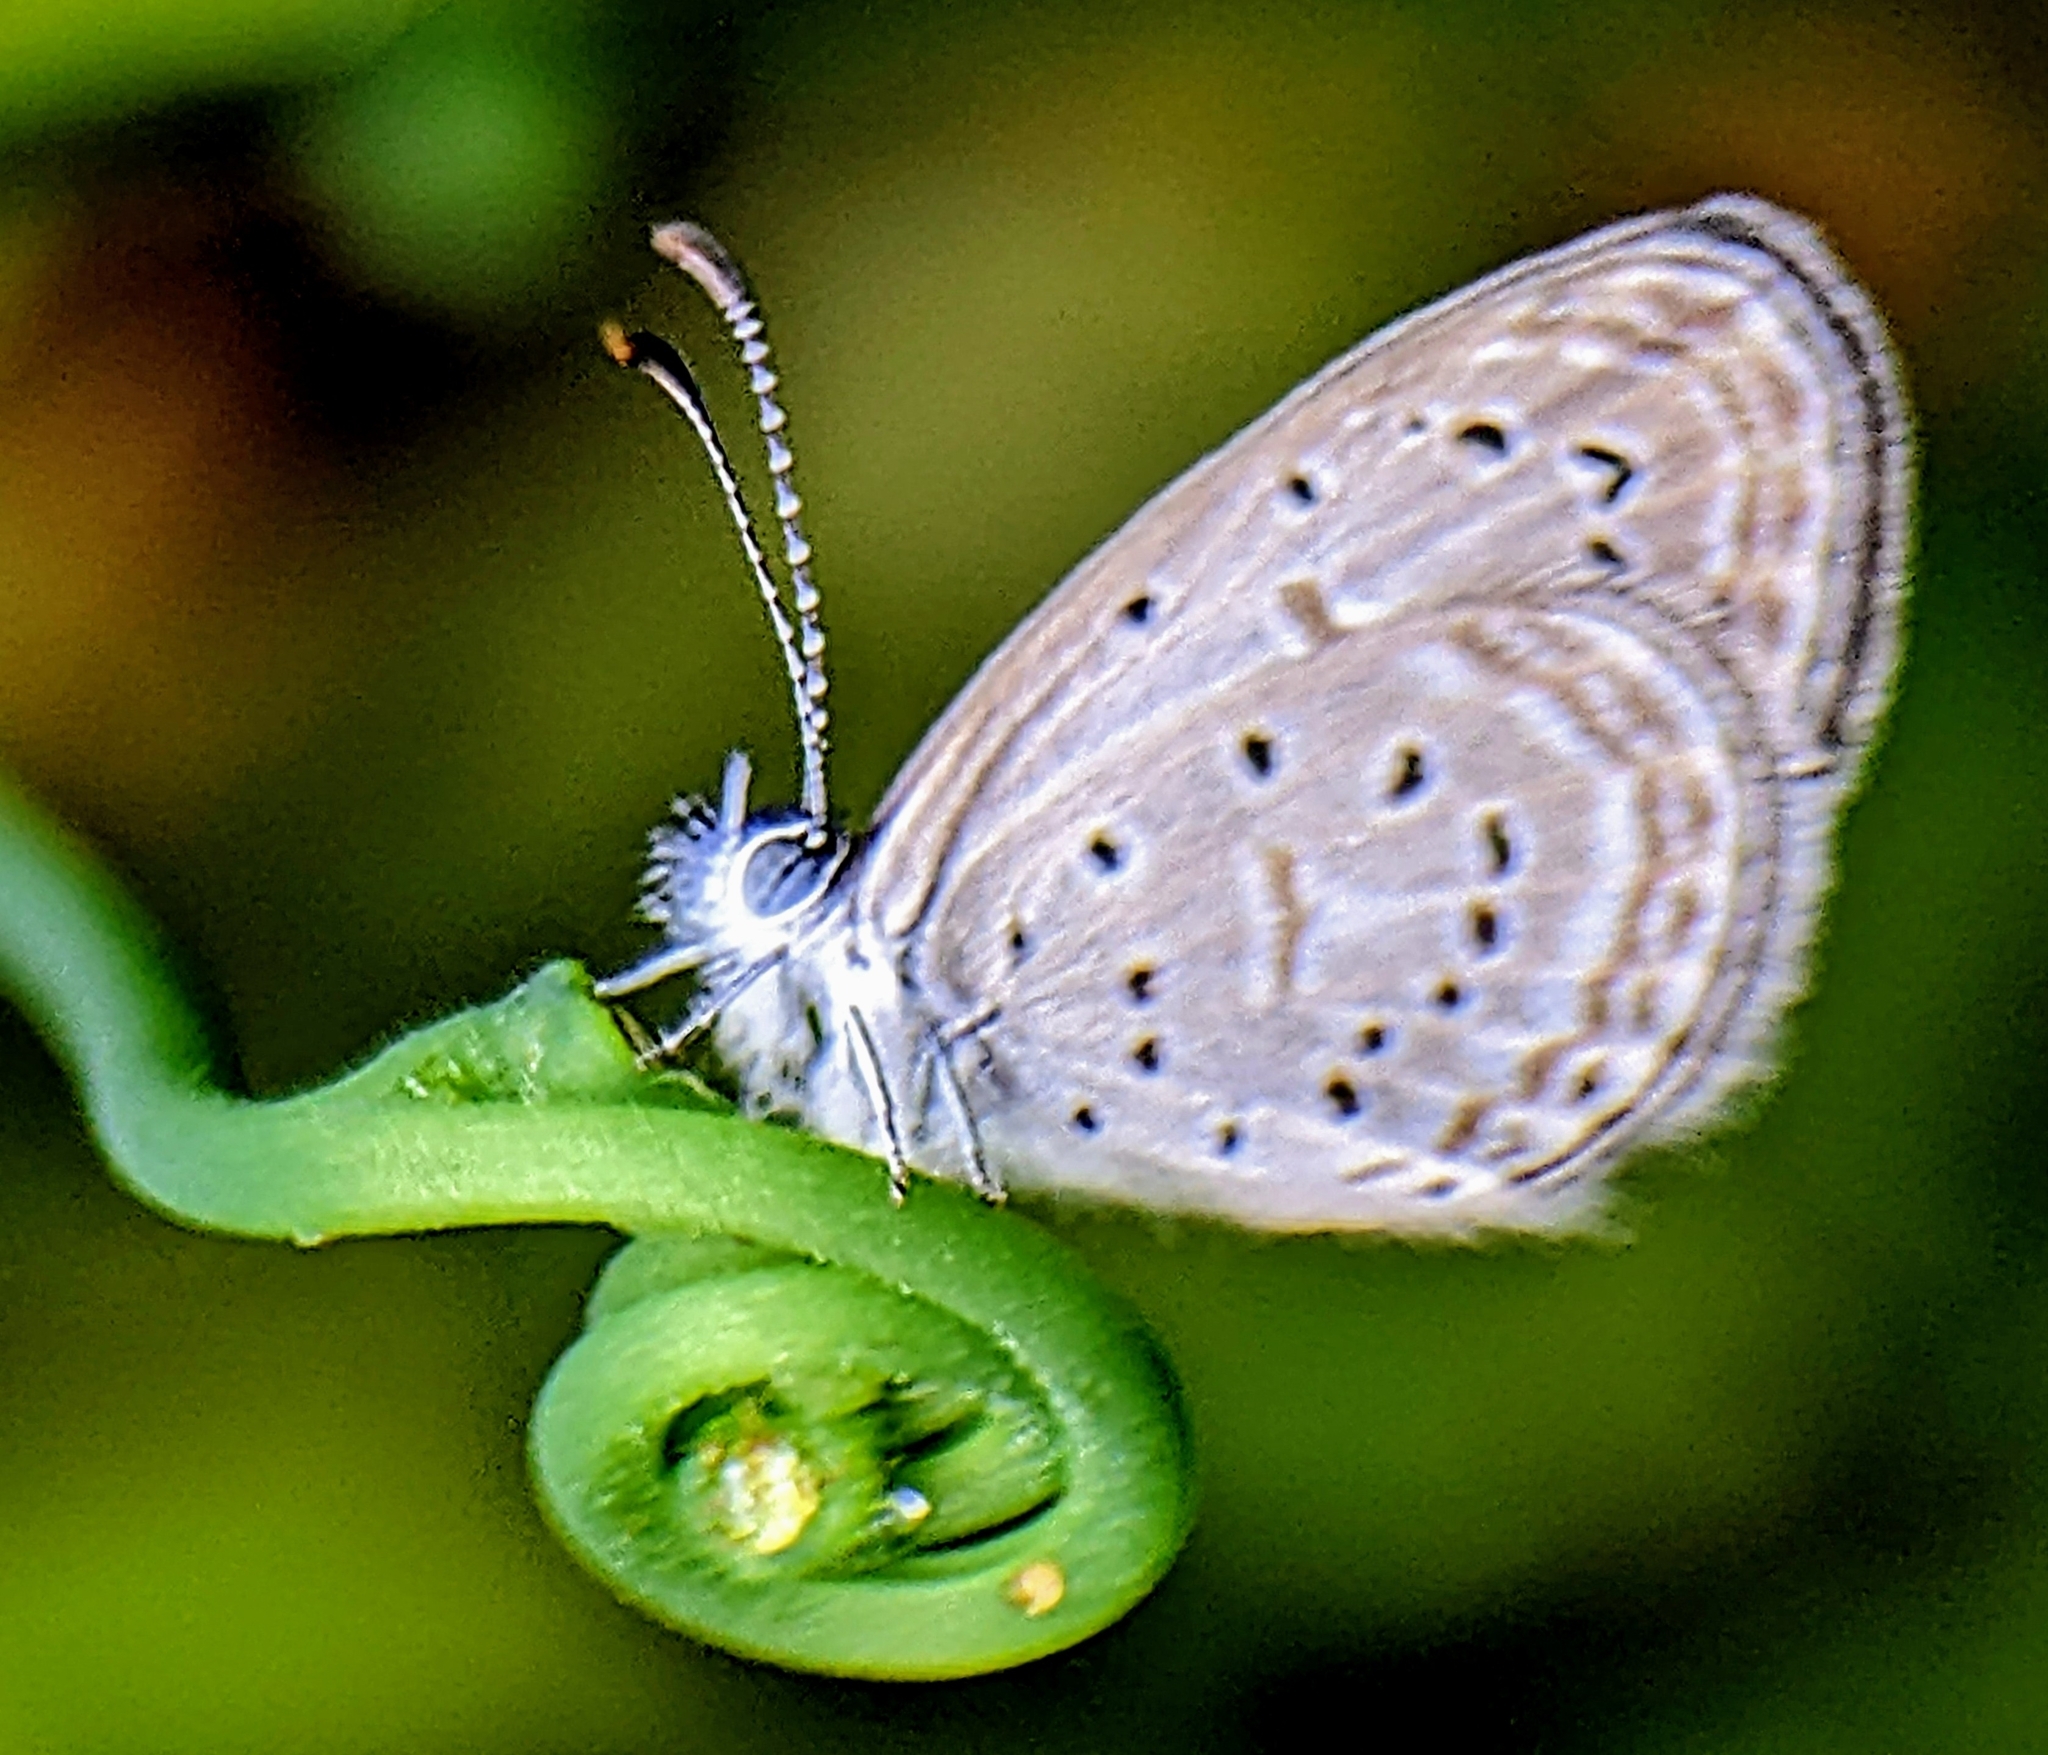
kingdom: Animalia
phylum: Arthropoda
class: Insecta
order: Lepidoptera
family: Lycaenidae
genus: Zizula
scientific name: Zizula hylax
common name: Gaika blue
